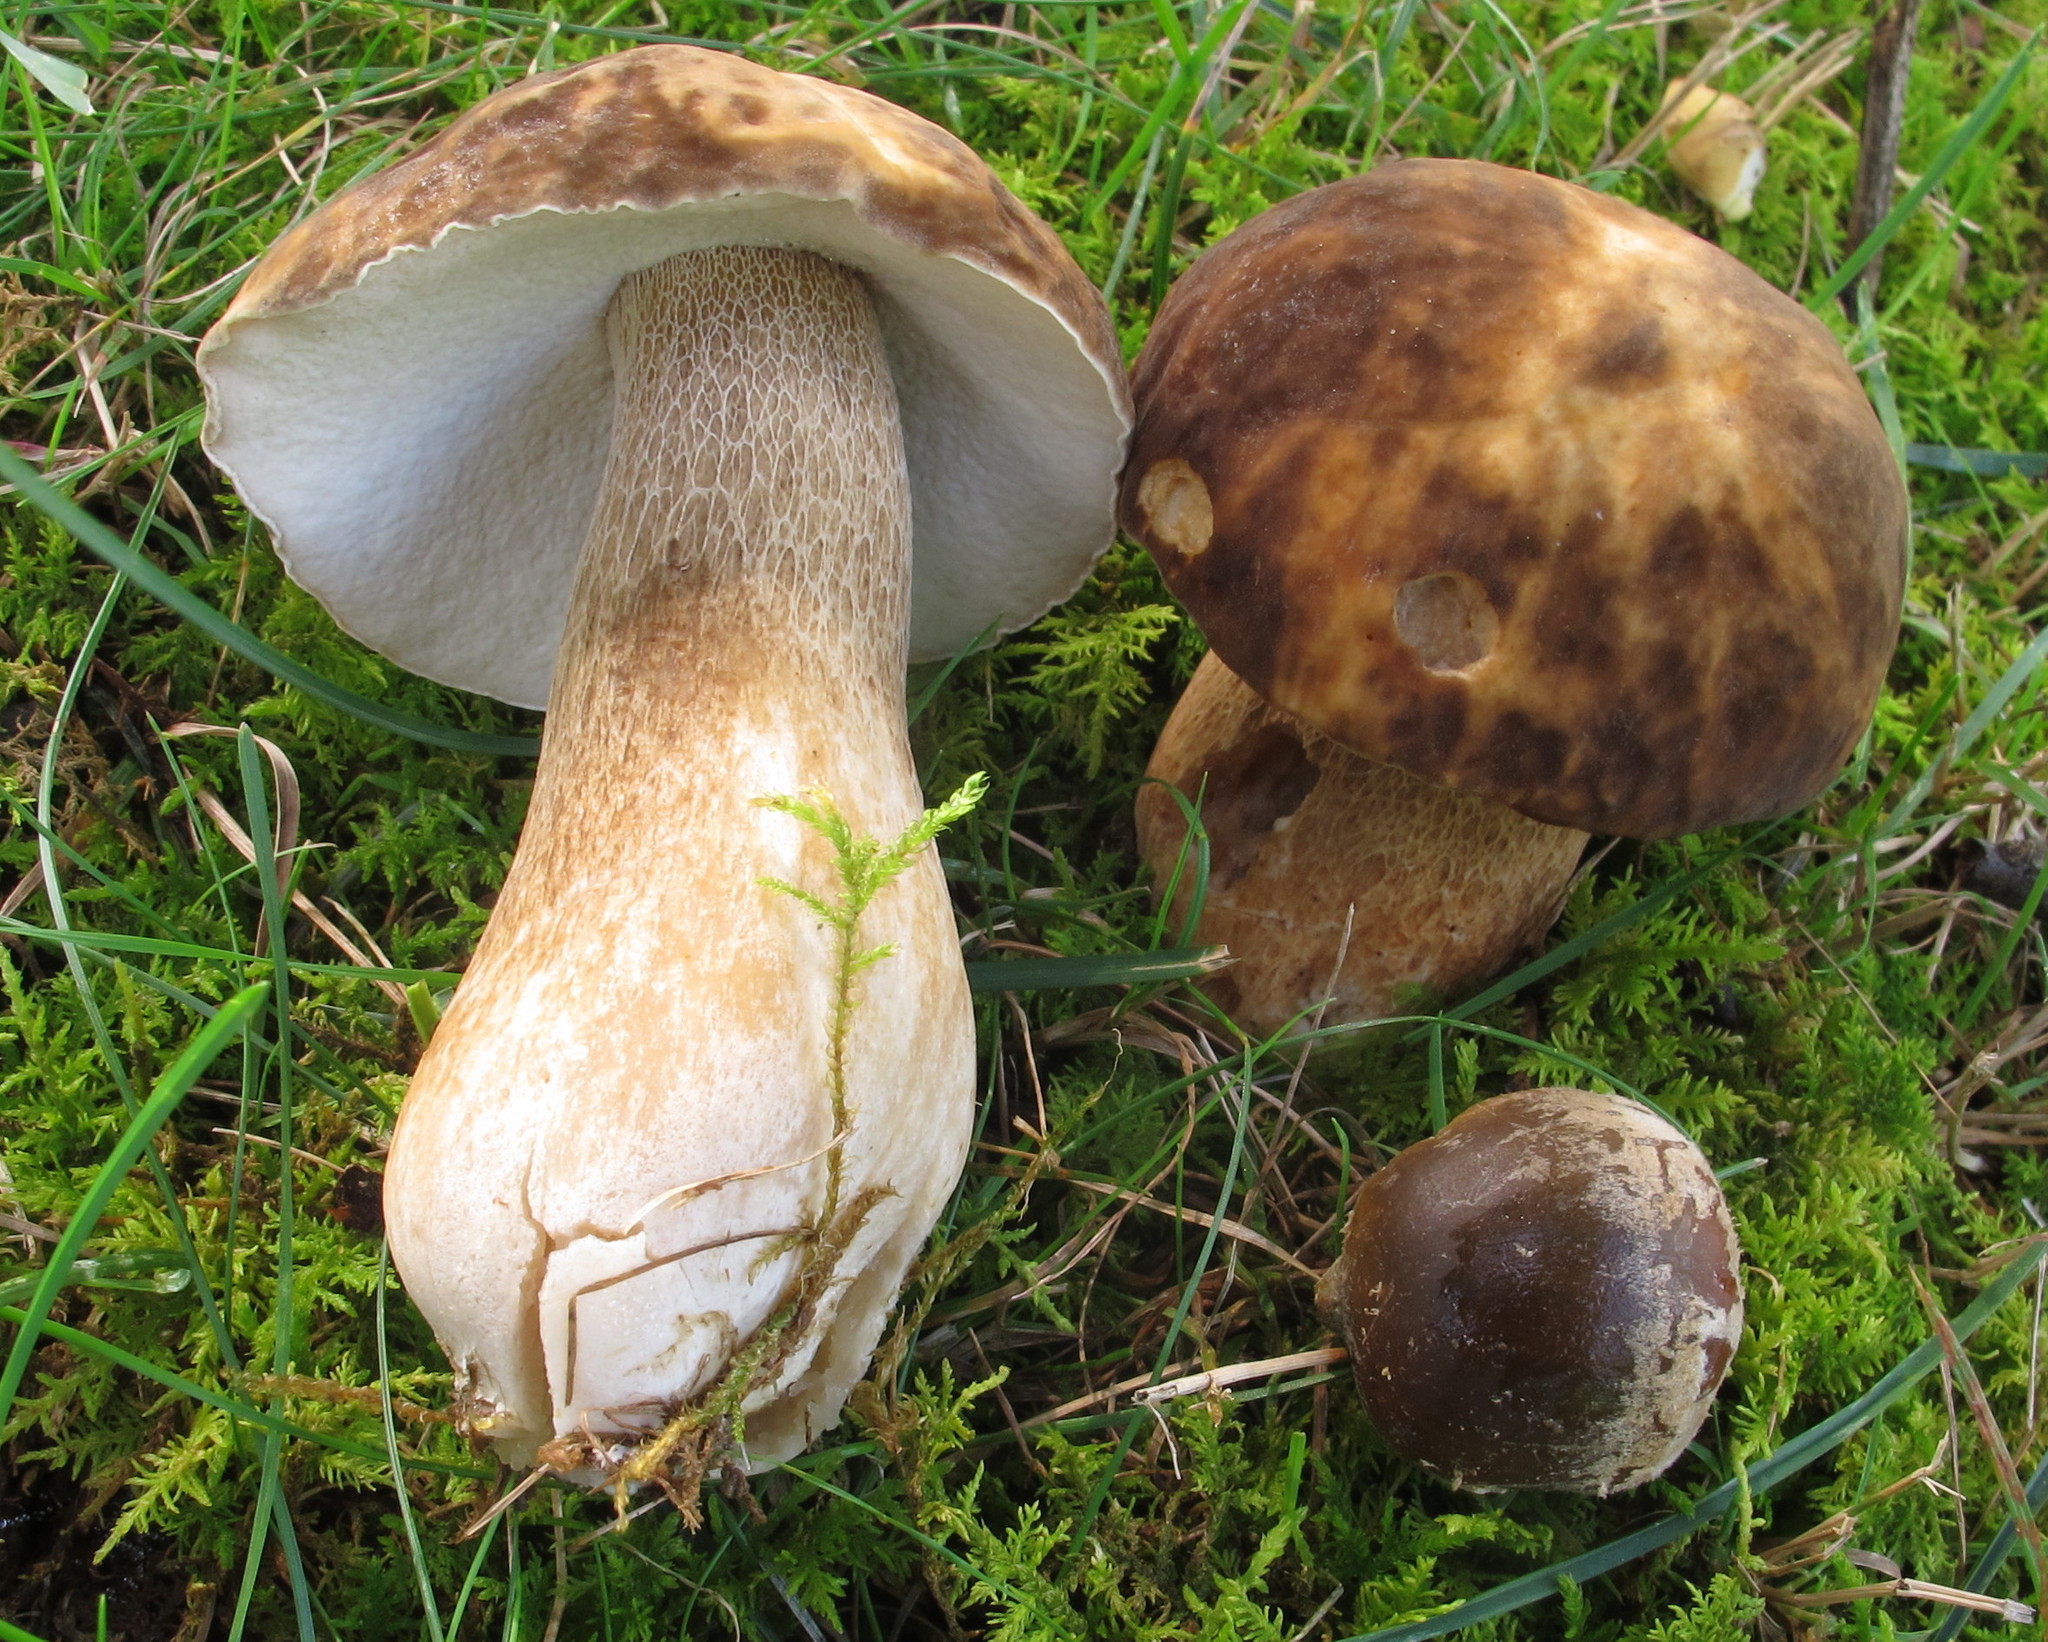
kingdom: Fungi
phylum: Basidiomycota
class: Agaricomycetes
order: Boletales
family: Boletaceae
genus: Boletus
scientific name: Boletus variipes
